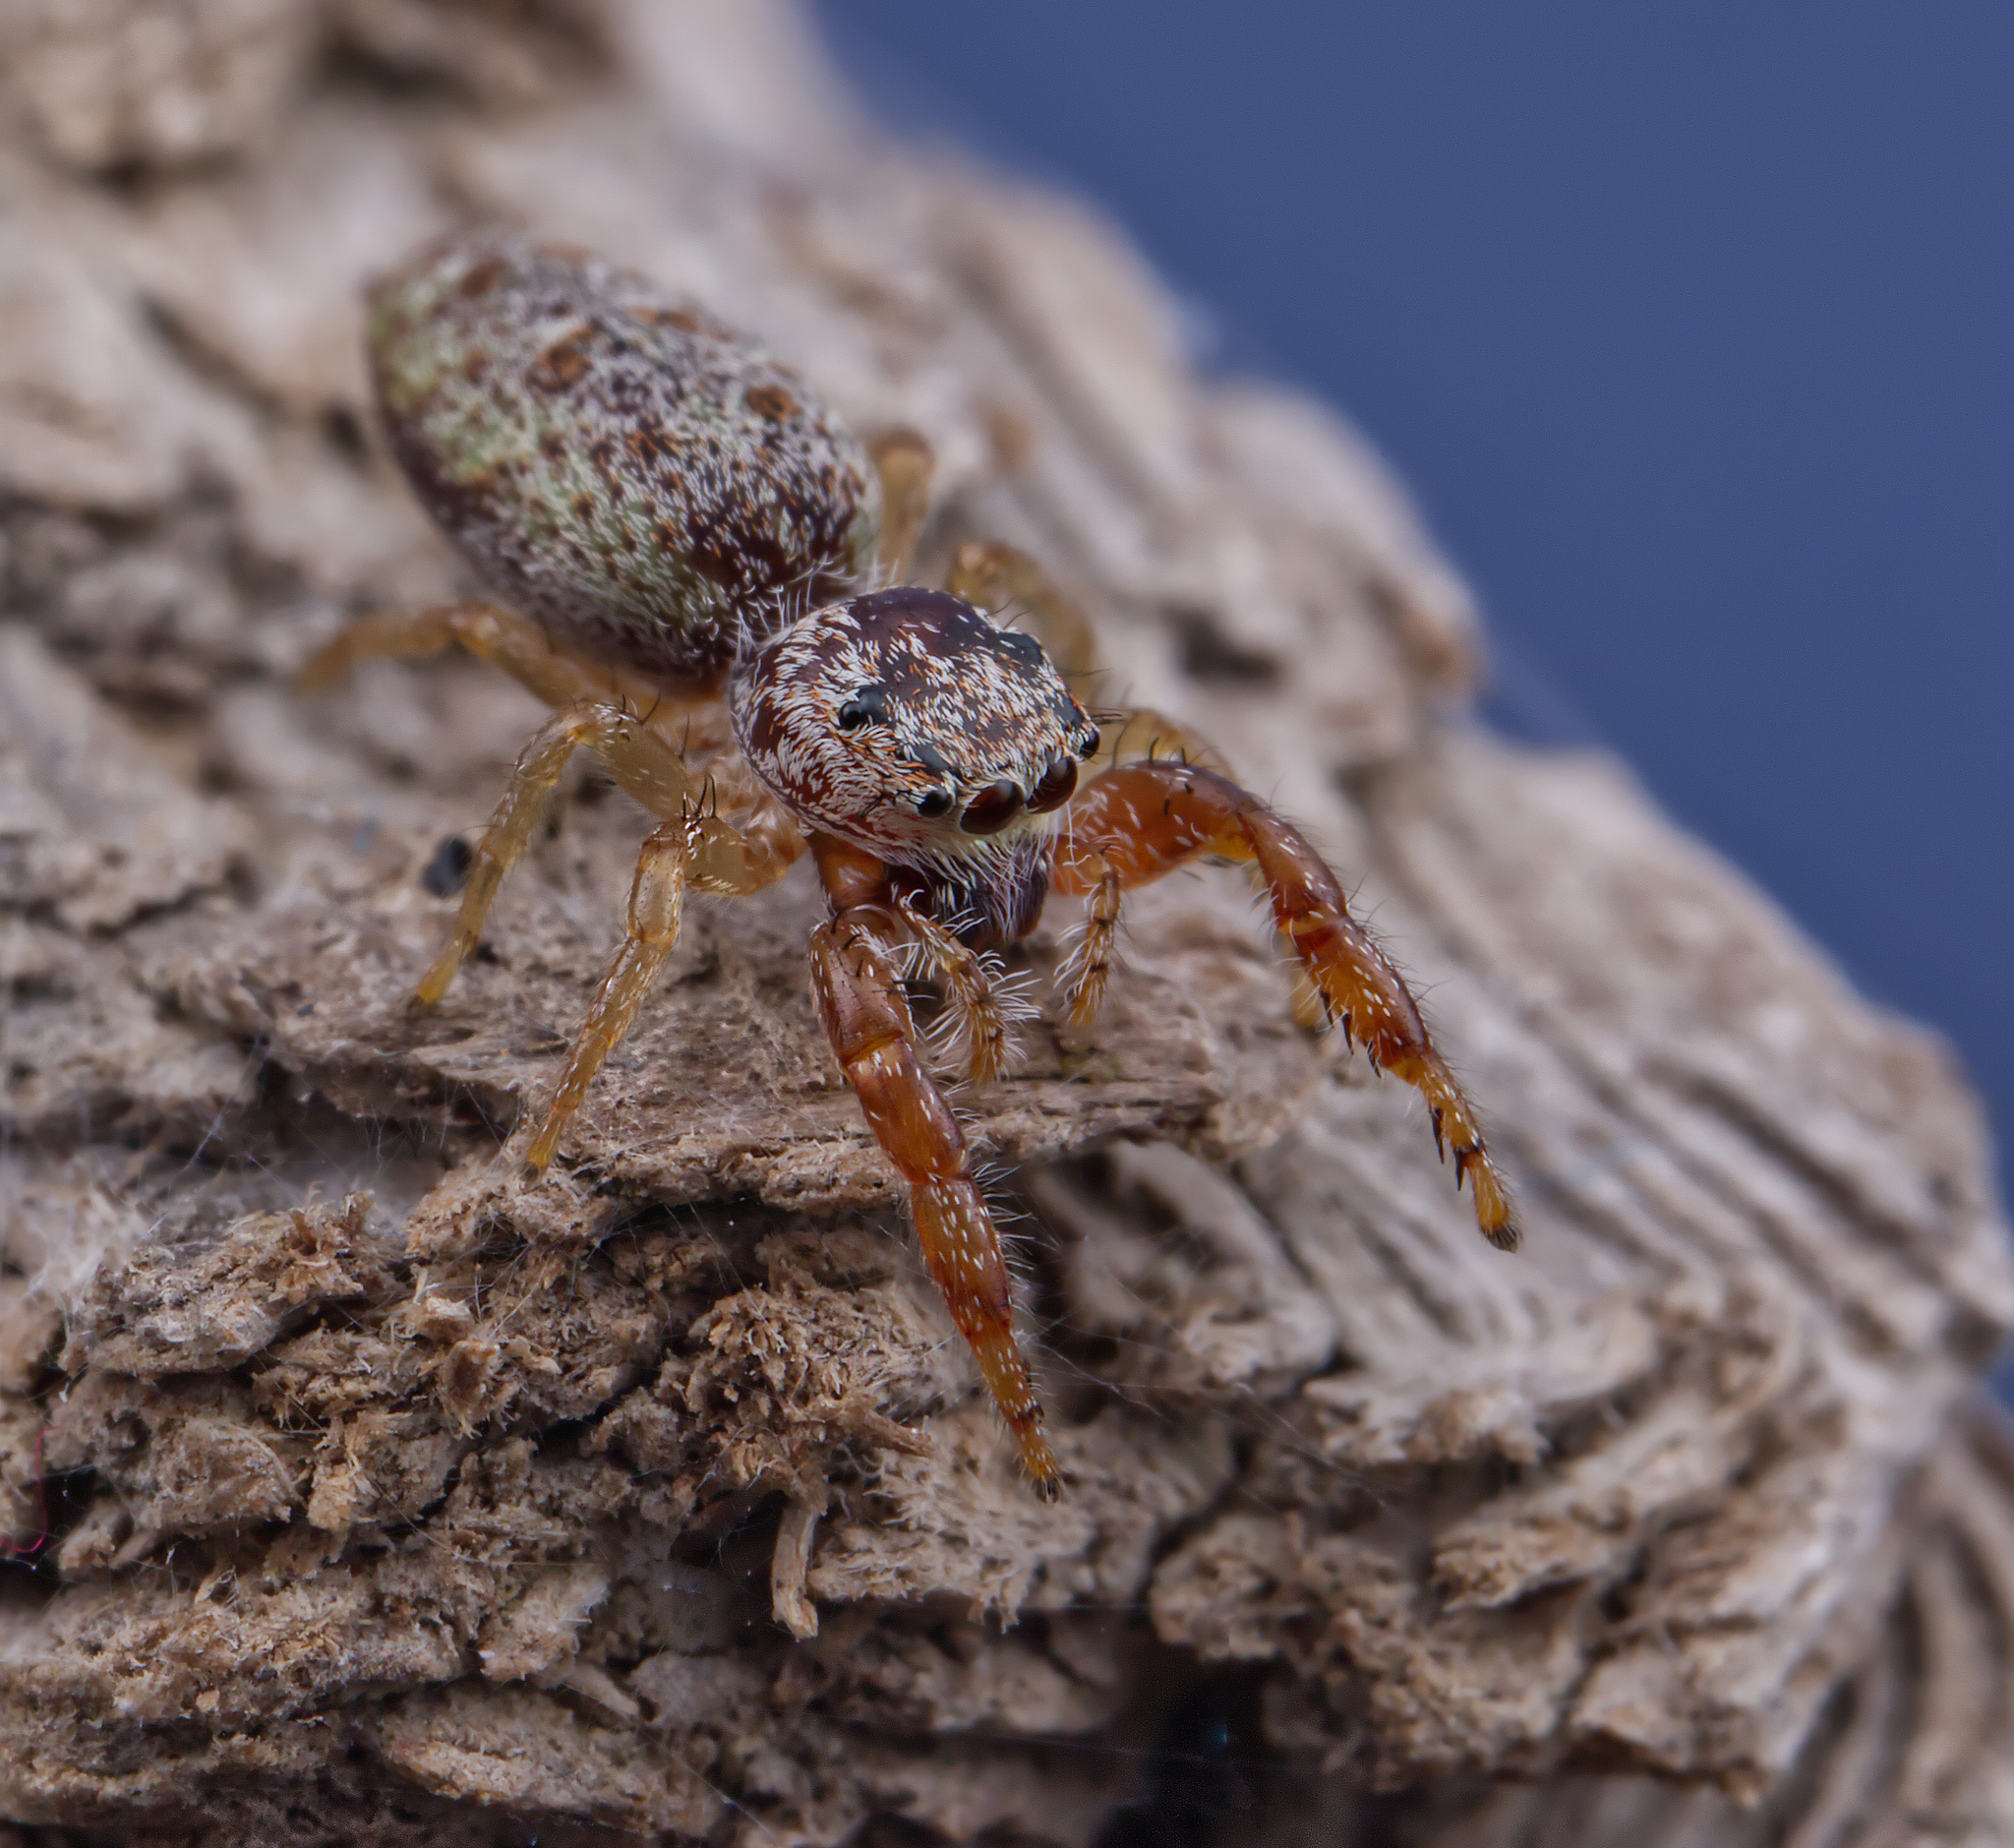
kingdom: Animalia
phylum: Arthropoda
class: Arachnida
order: Araneae
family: Salticidae
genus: Hentzia
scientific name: Hentzia palmarum
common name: Common hentz jumping spider
